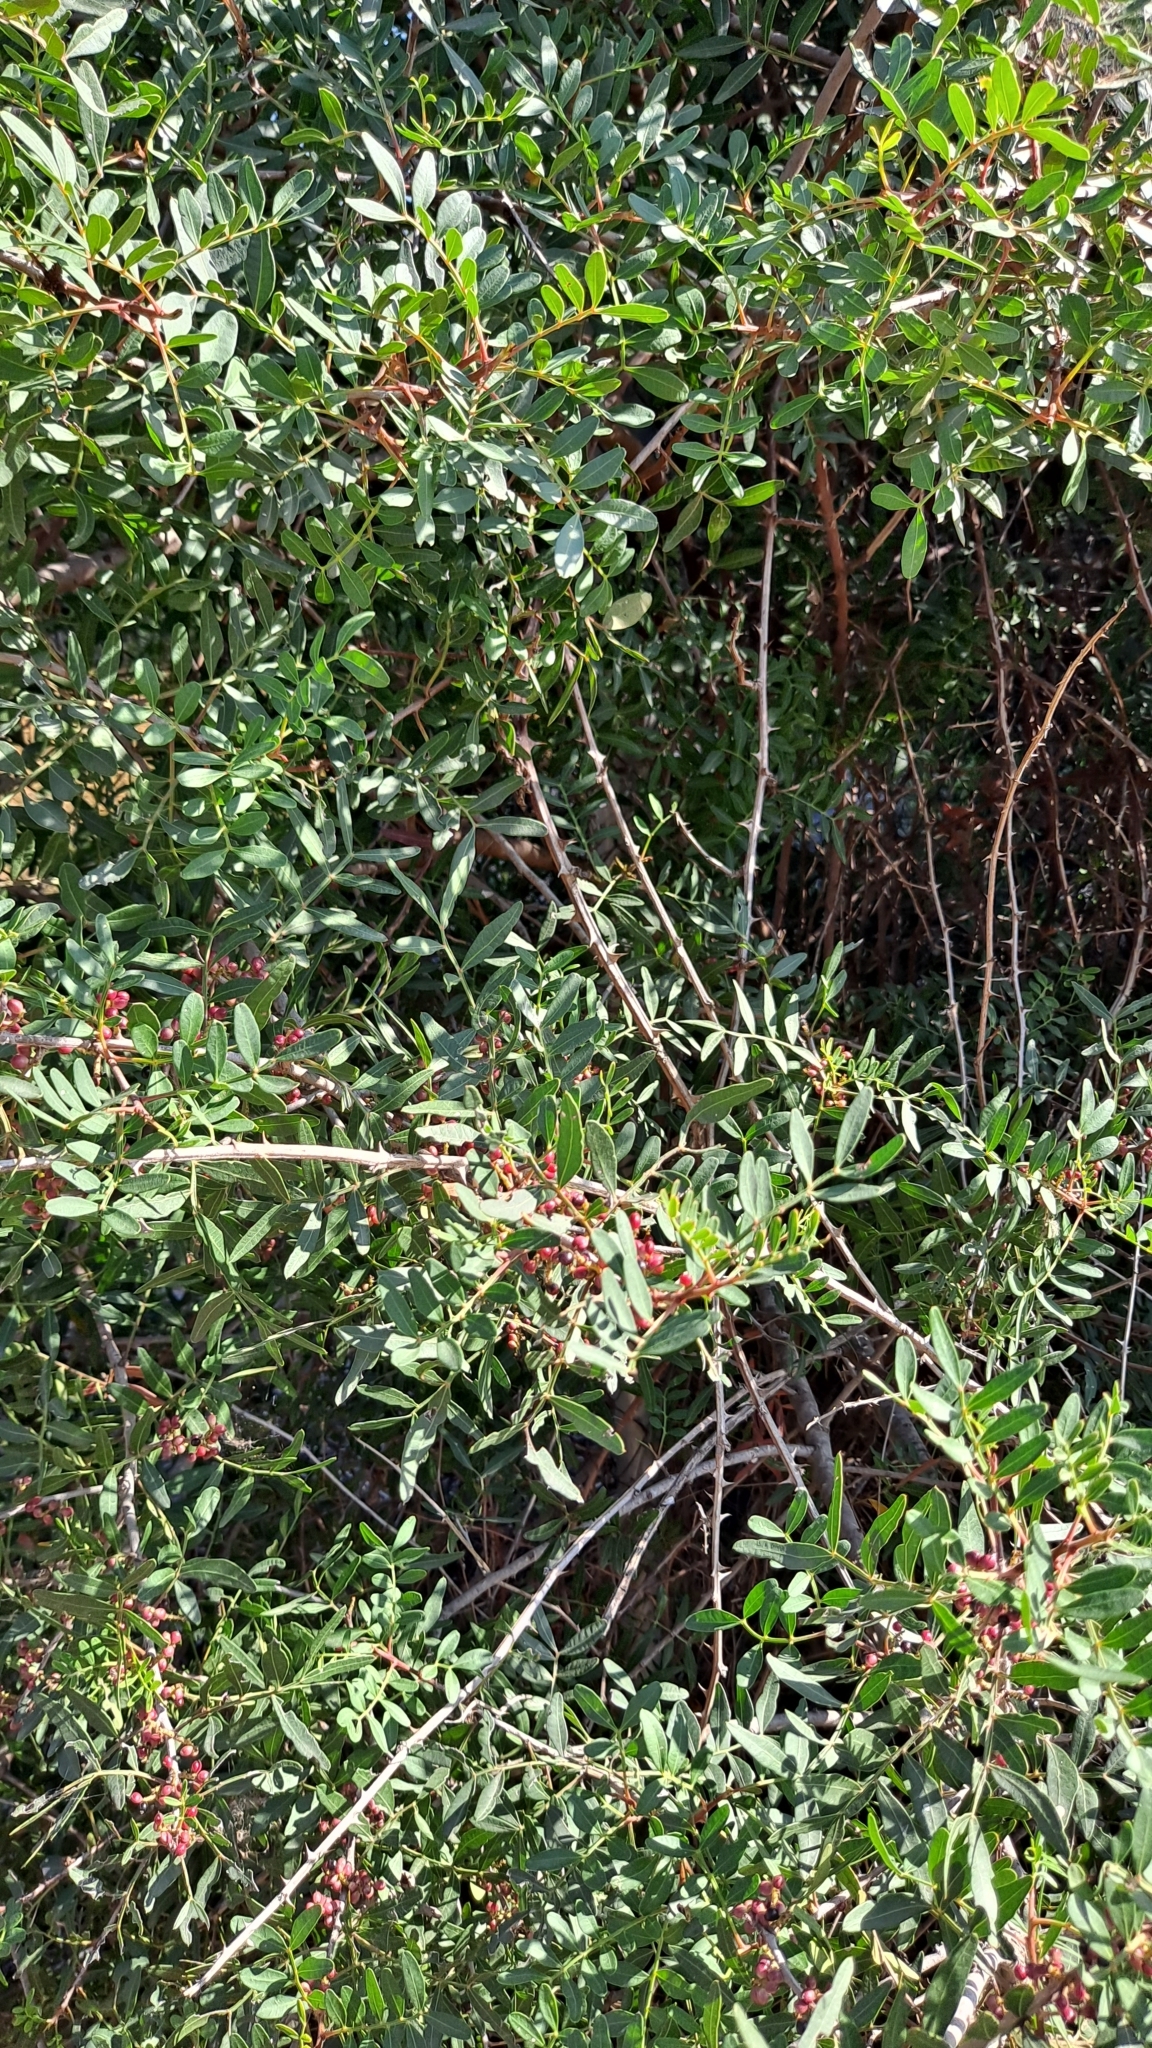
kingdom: Plantae
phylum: Tracheophyta
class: Magnoliopsida
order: Sapindales
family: Anacardiaceae
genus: Pistacia
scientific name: Pistacia lentiscus
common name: Lentisk
